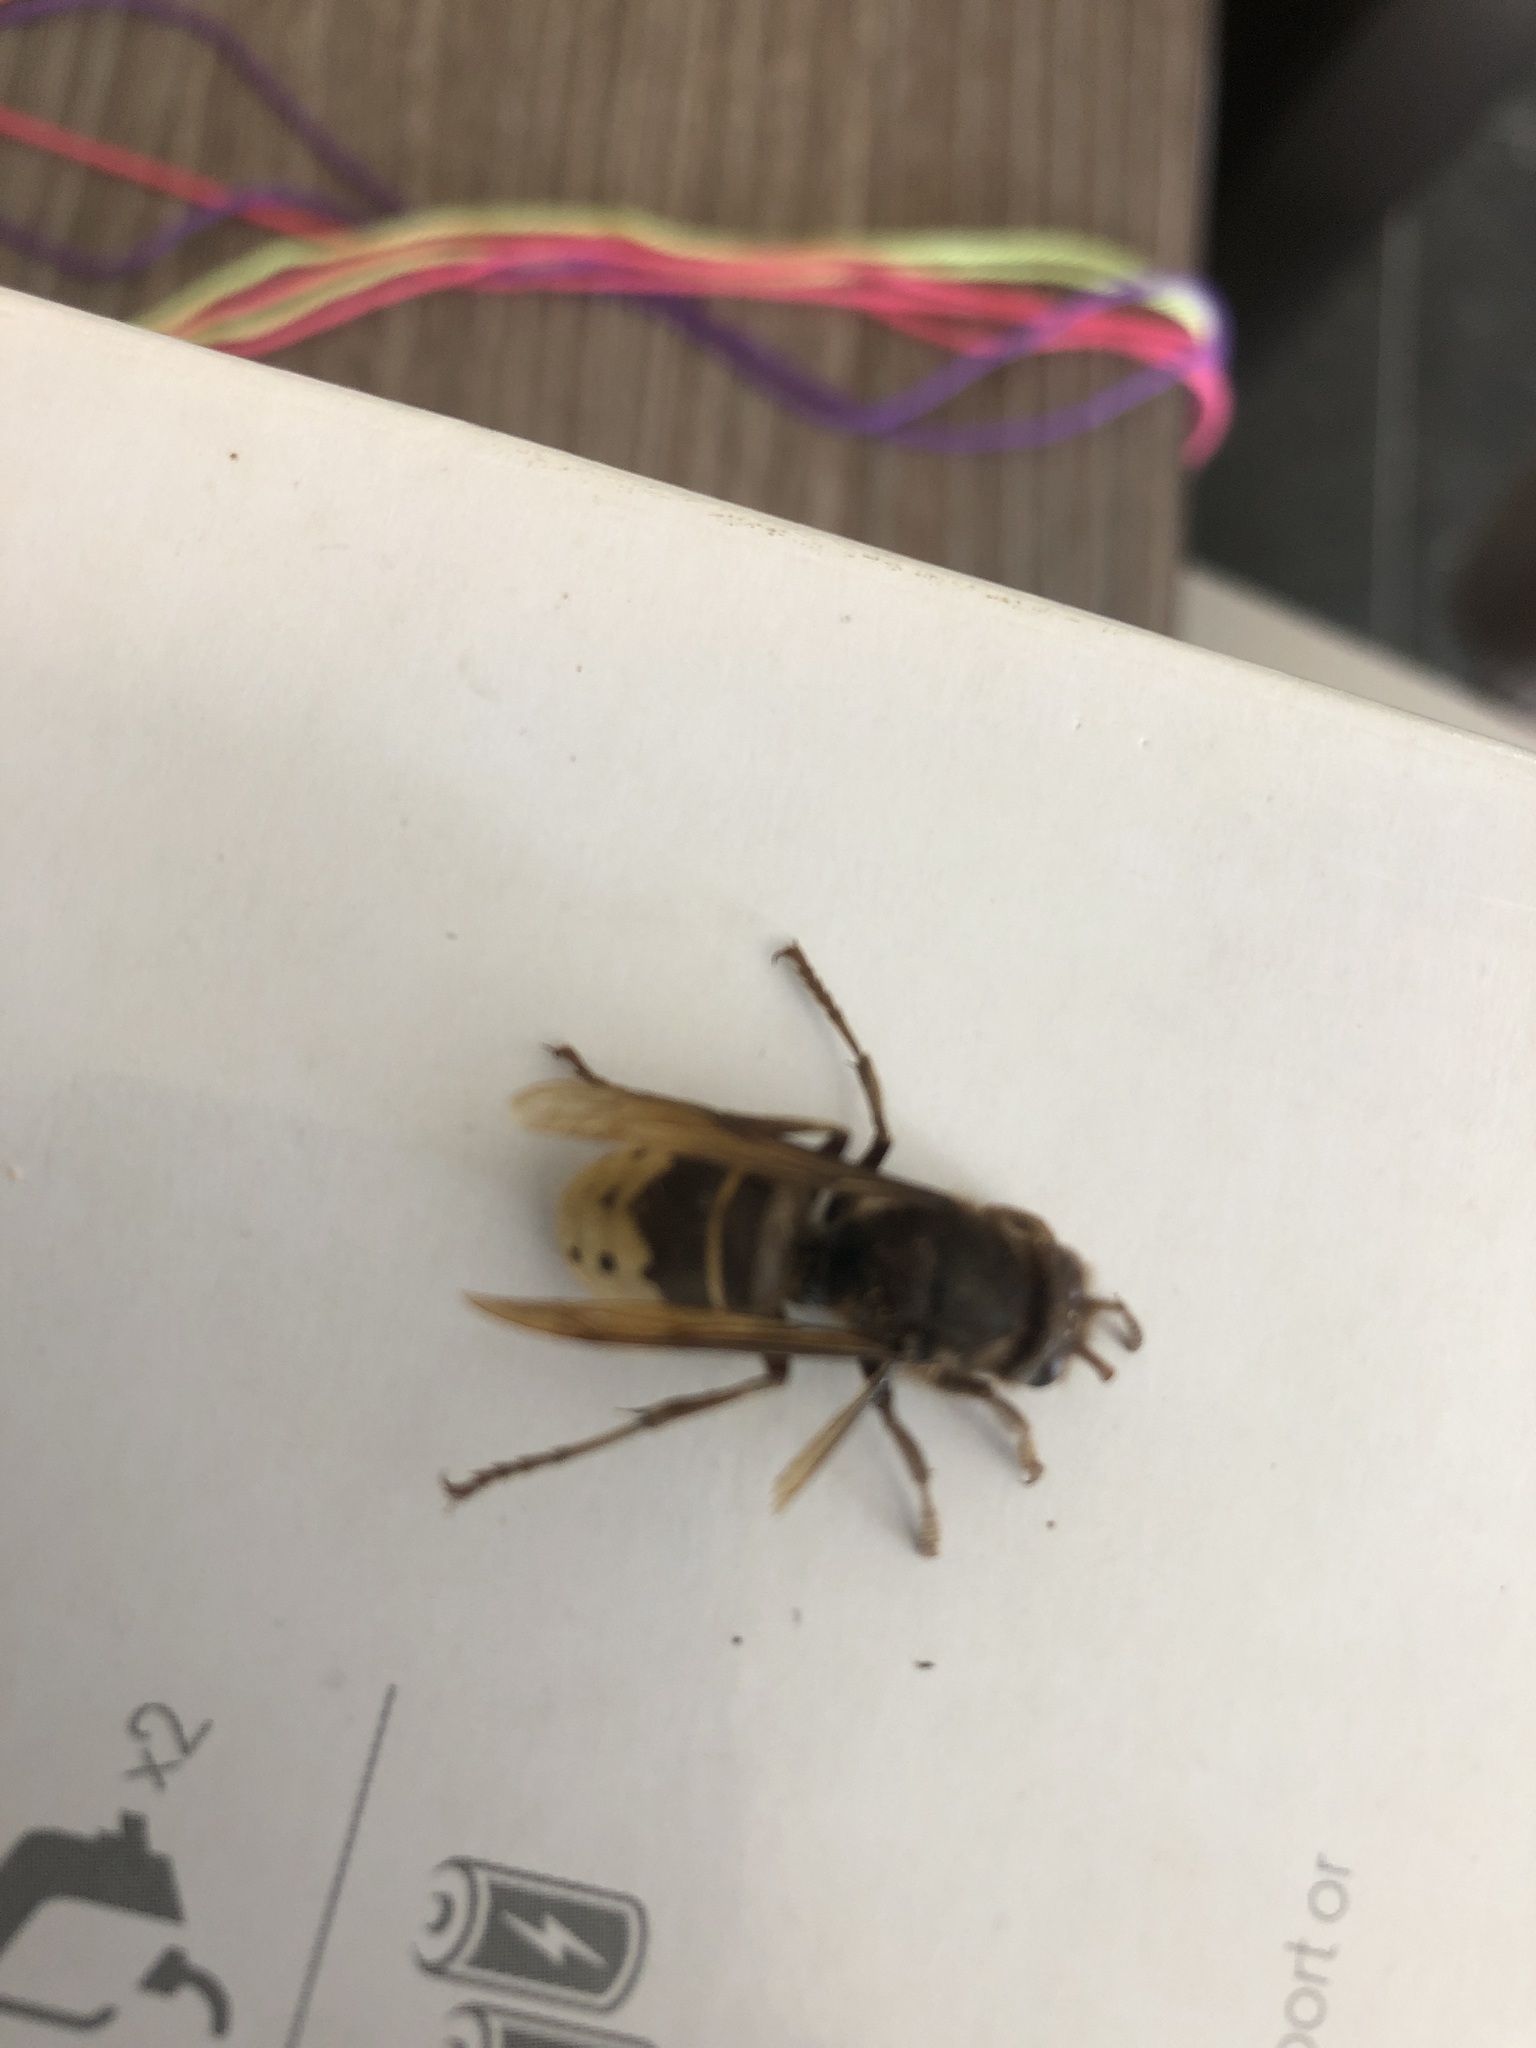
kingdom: Animalia
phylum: Arthropoda
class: Insecta
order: Hymenoptera
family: Vespidae
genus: Vespa
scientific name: Vespa crabro
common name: Hornet
